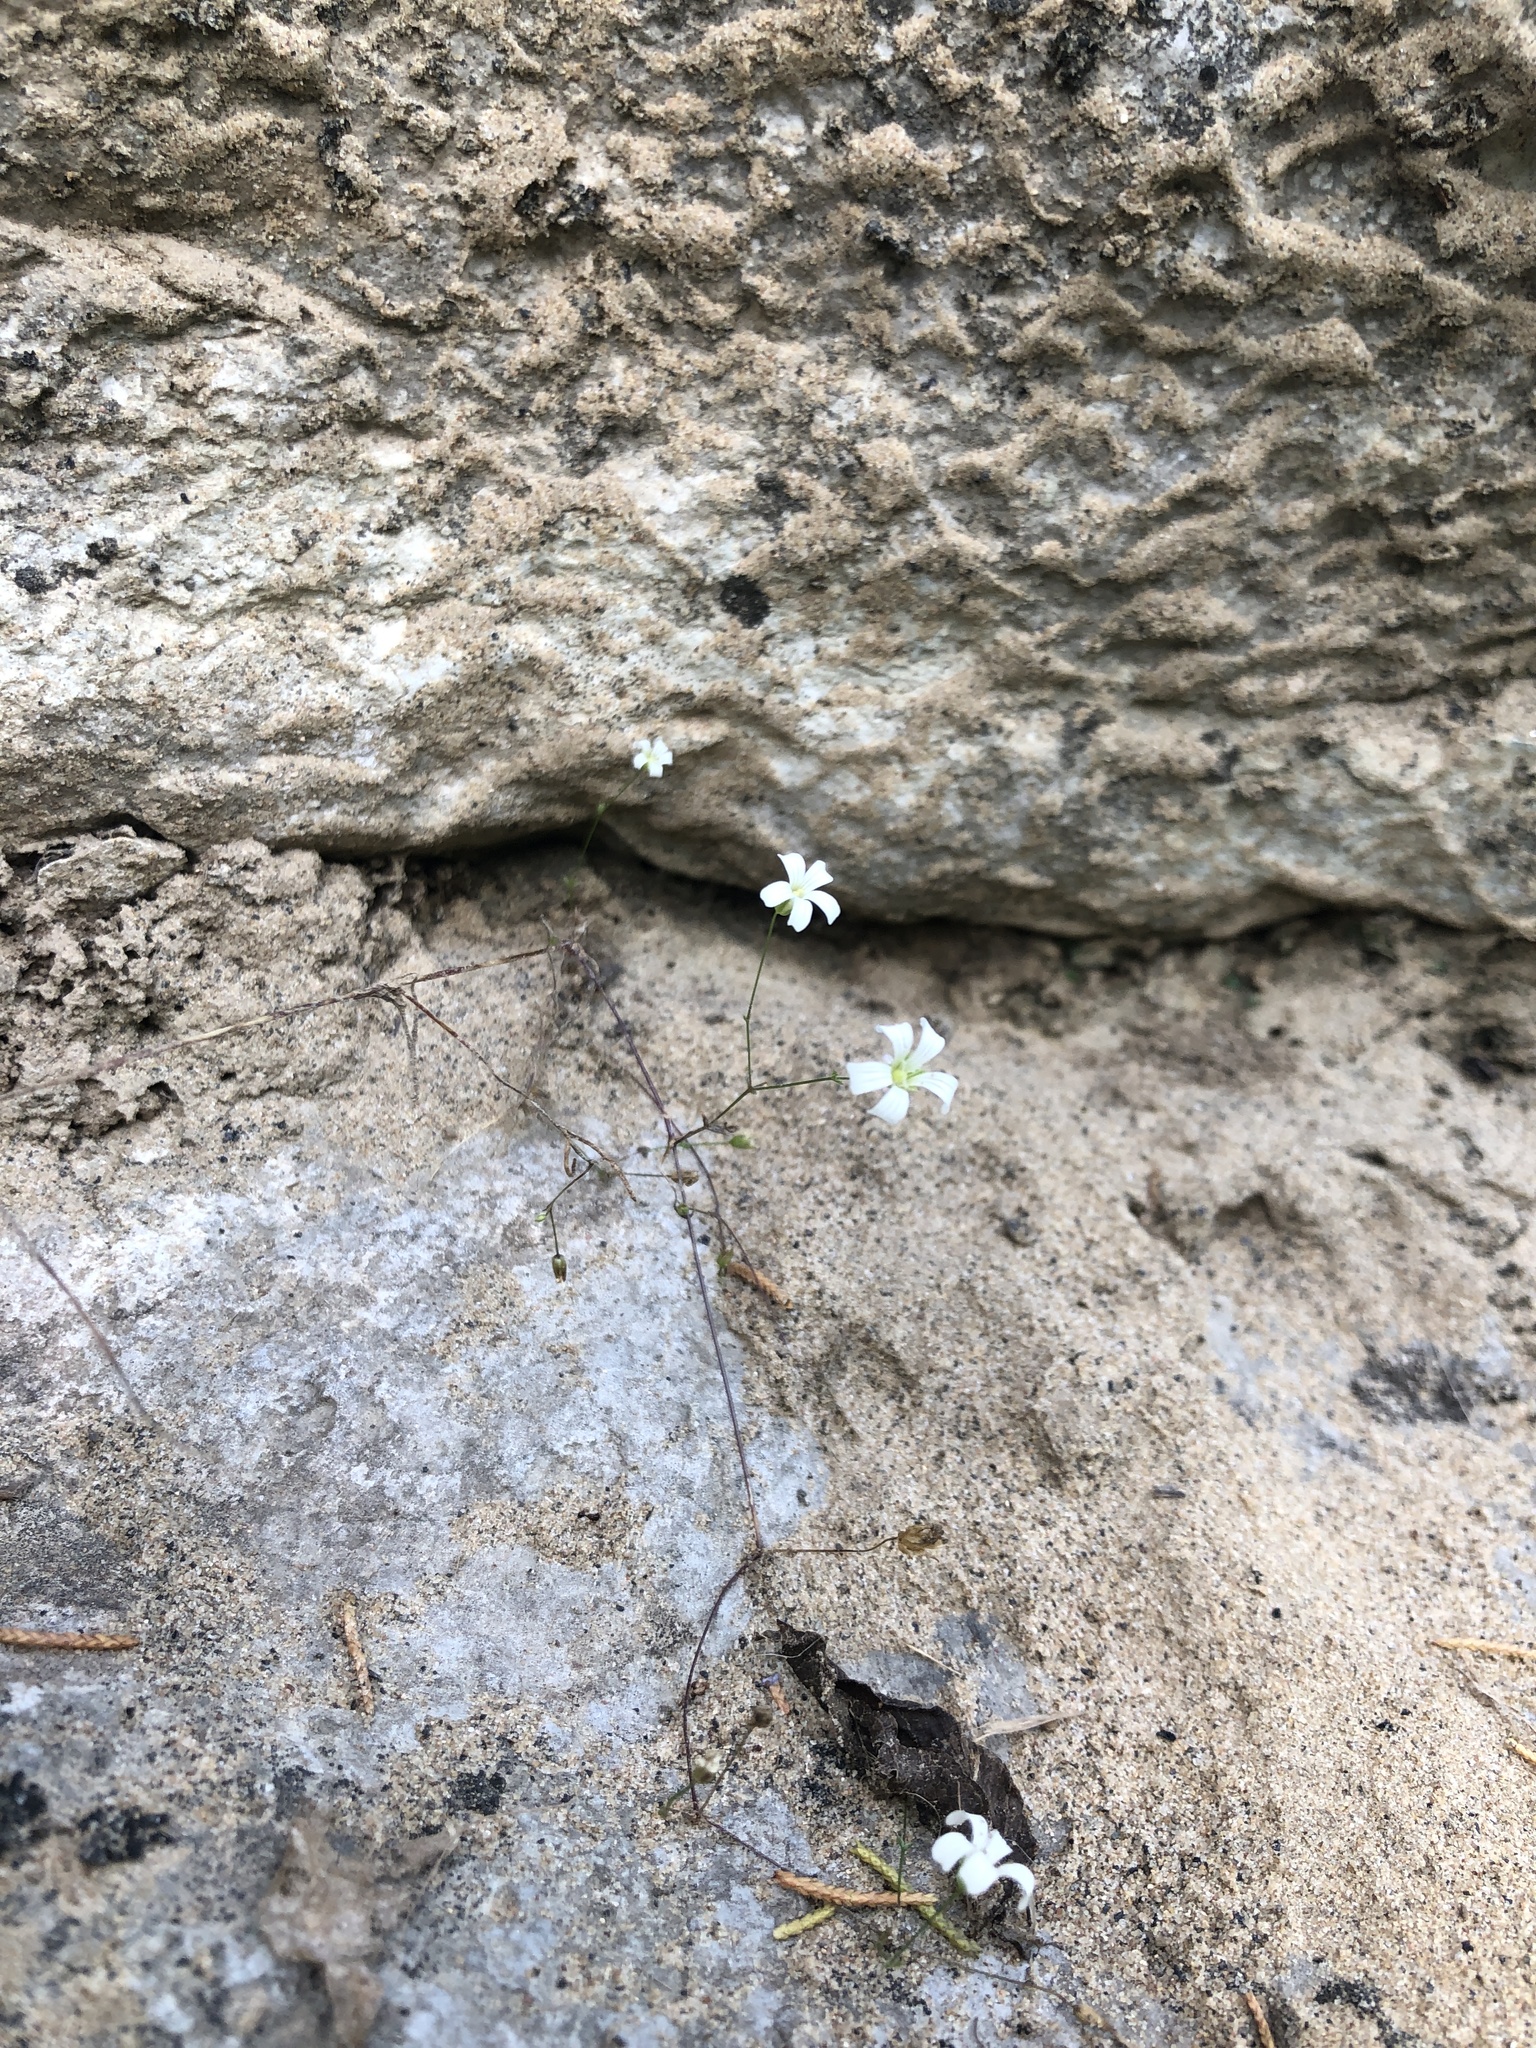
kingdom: Plantae
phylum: Tracheophyta
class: Magnoliopsida
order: Caryophyllales
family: Caryophyllaceae
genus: Mononeuria
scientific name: Mononeuria patula
